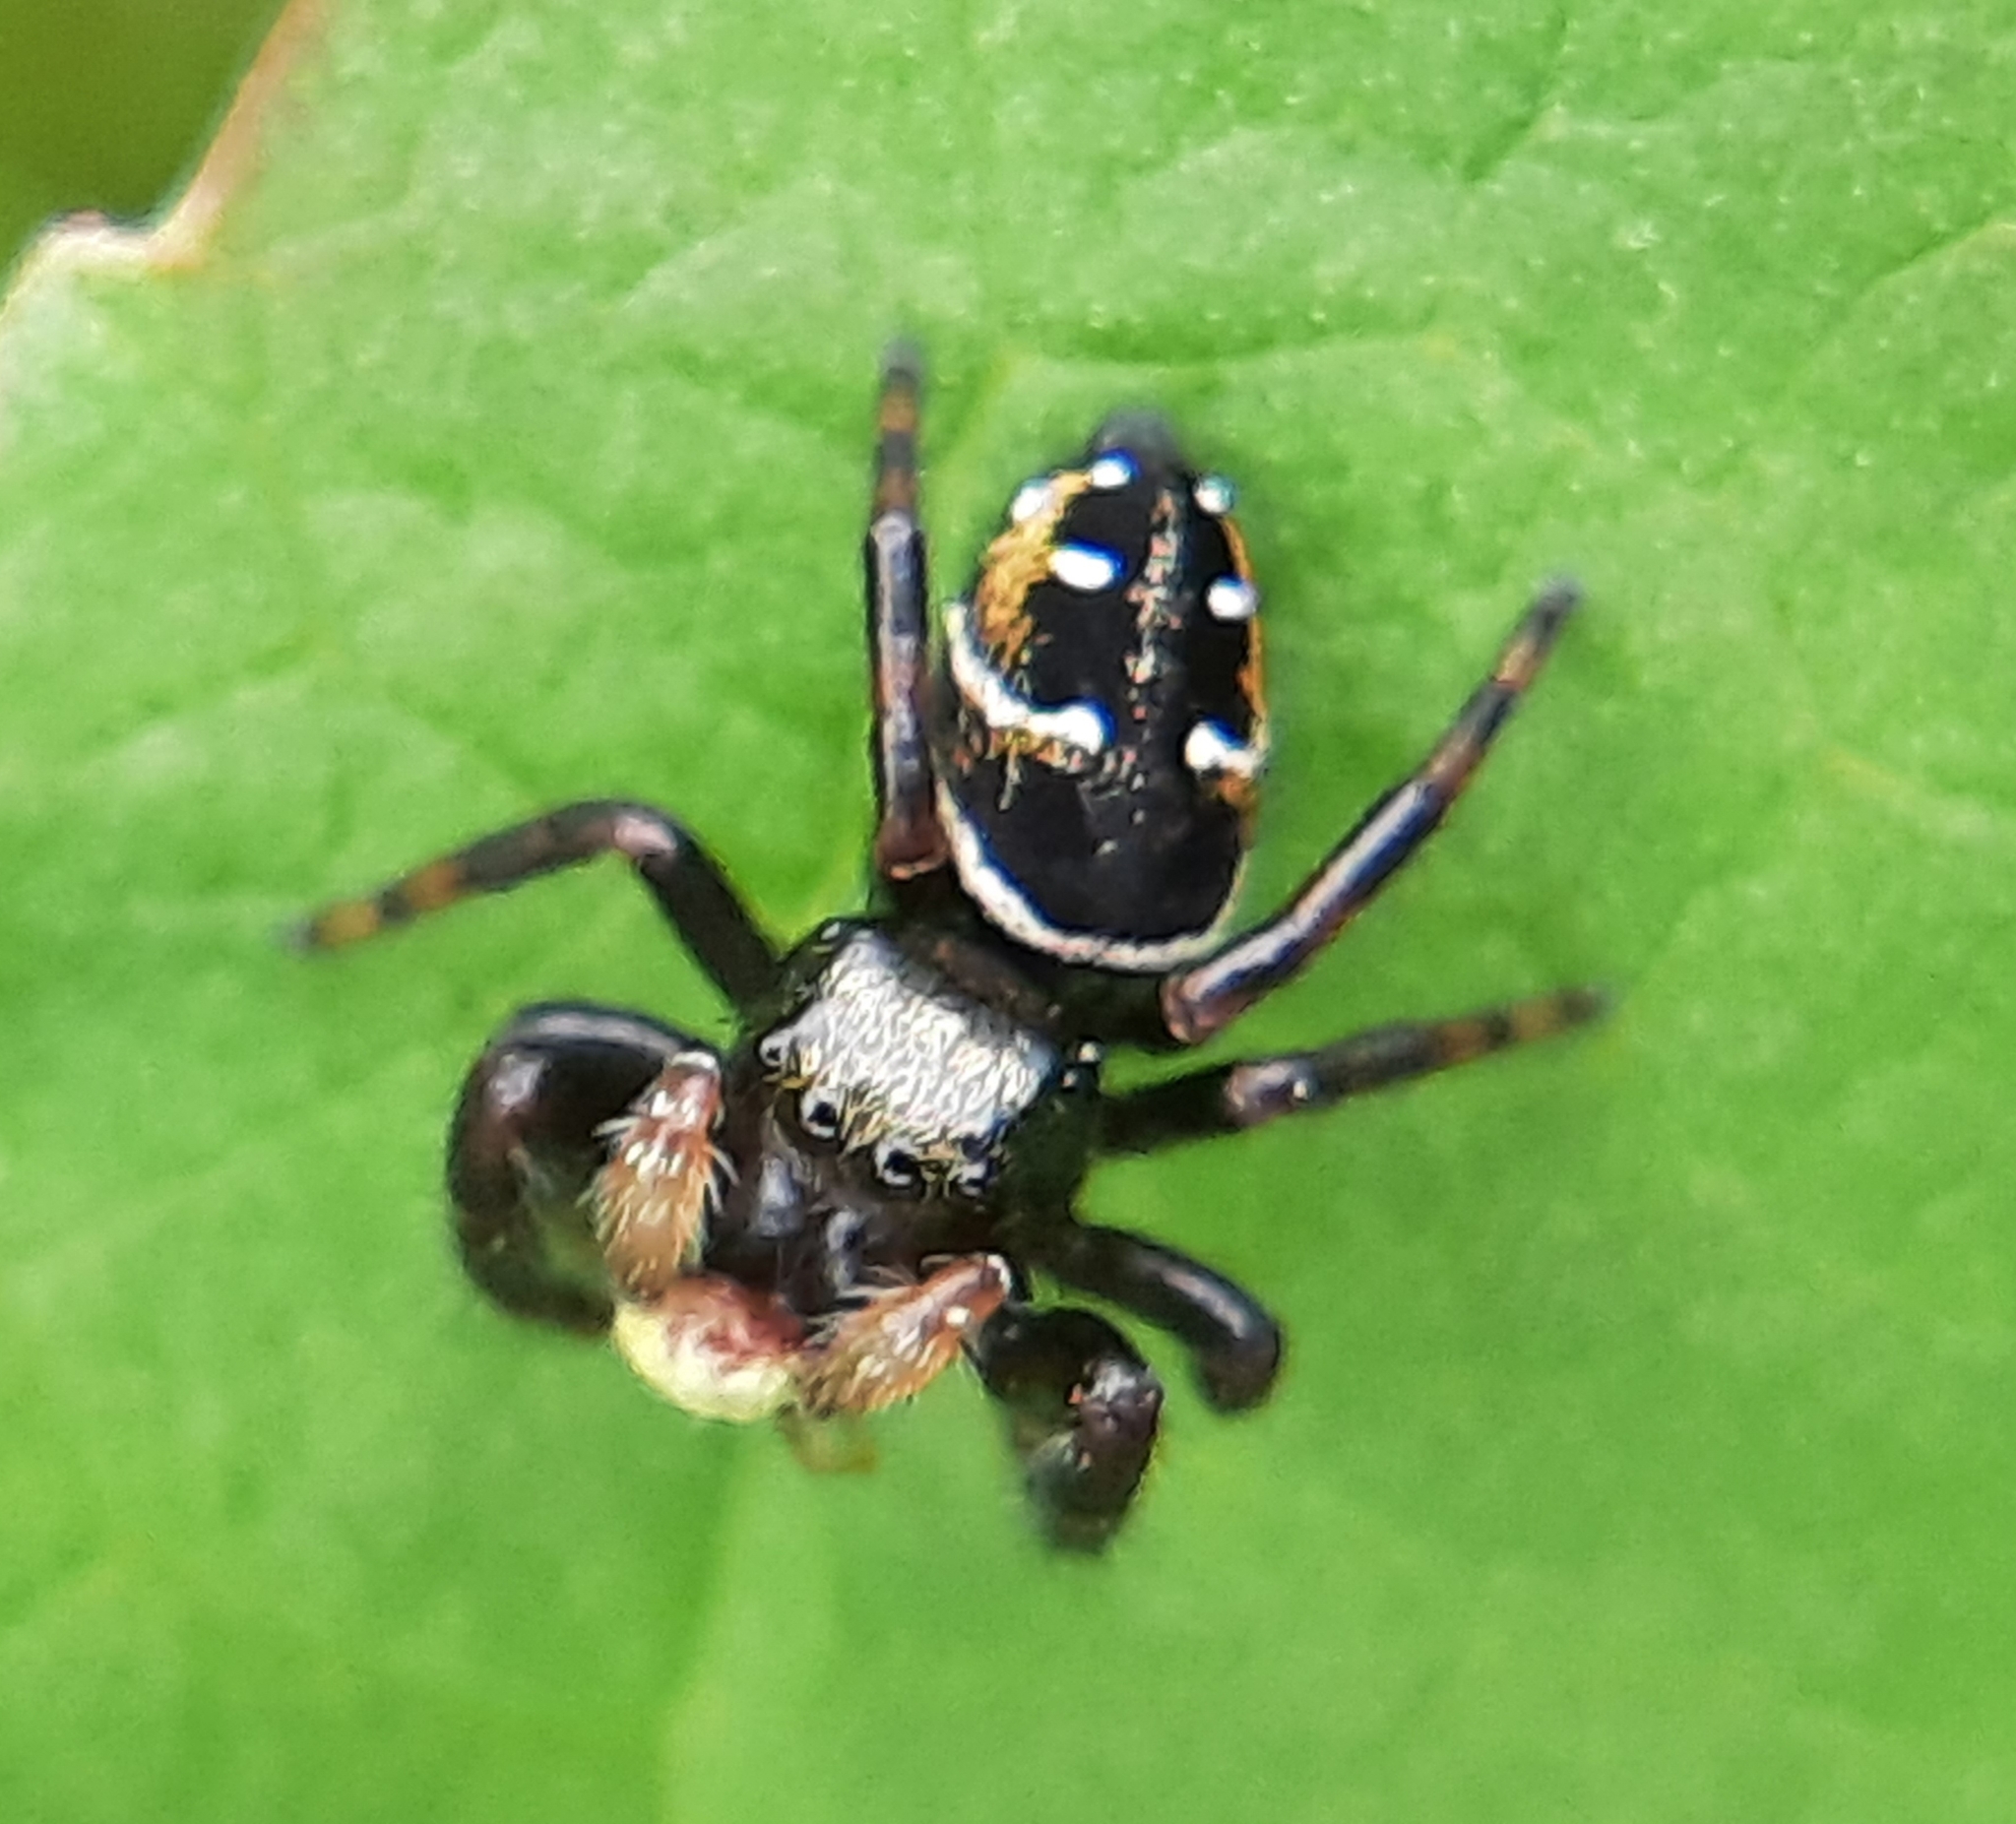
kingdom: Animalia
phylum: Arthropoda
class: Arachnida
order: Araneae
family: Salticidae
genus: Phidippus
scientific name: Phidippus clarus
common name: Brilliant jumping spider
